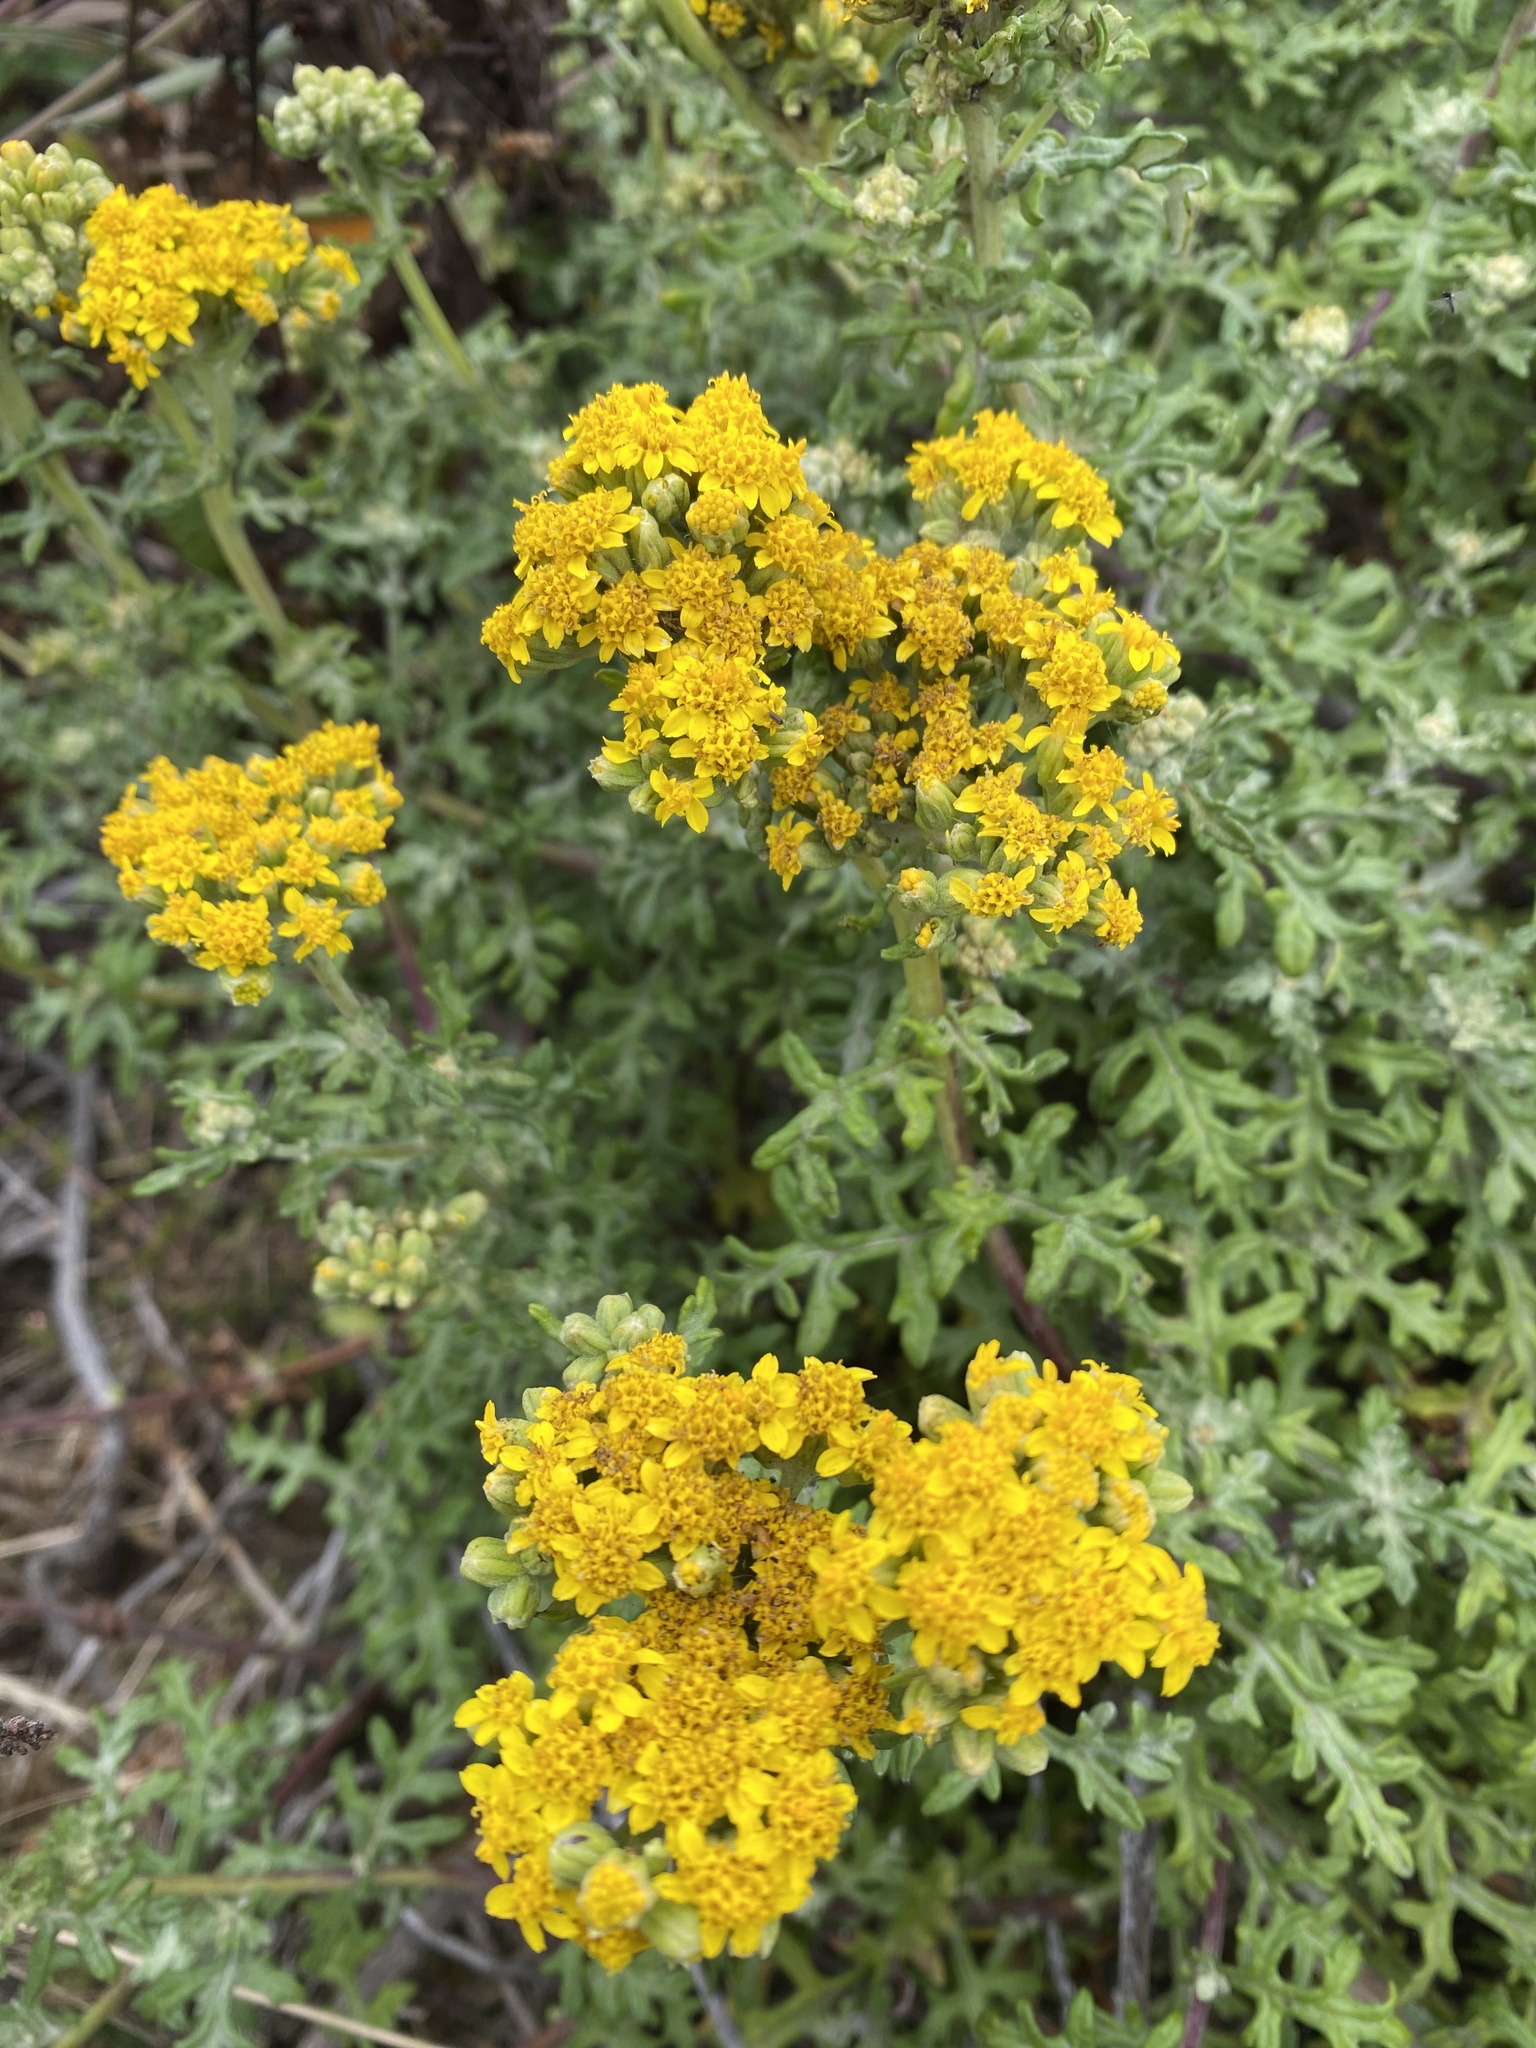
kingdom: Plantae
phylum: Tracheophyta
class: Magnoliopsida
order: Asterales
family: Asteraceae
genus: Eriophyllum
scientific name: Eriophyllum staechadifolium
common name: Lizardtail
